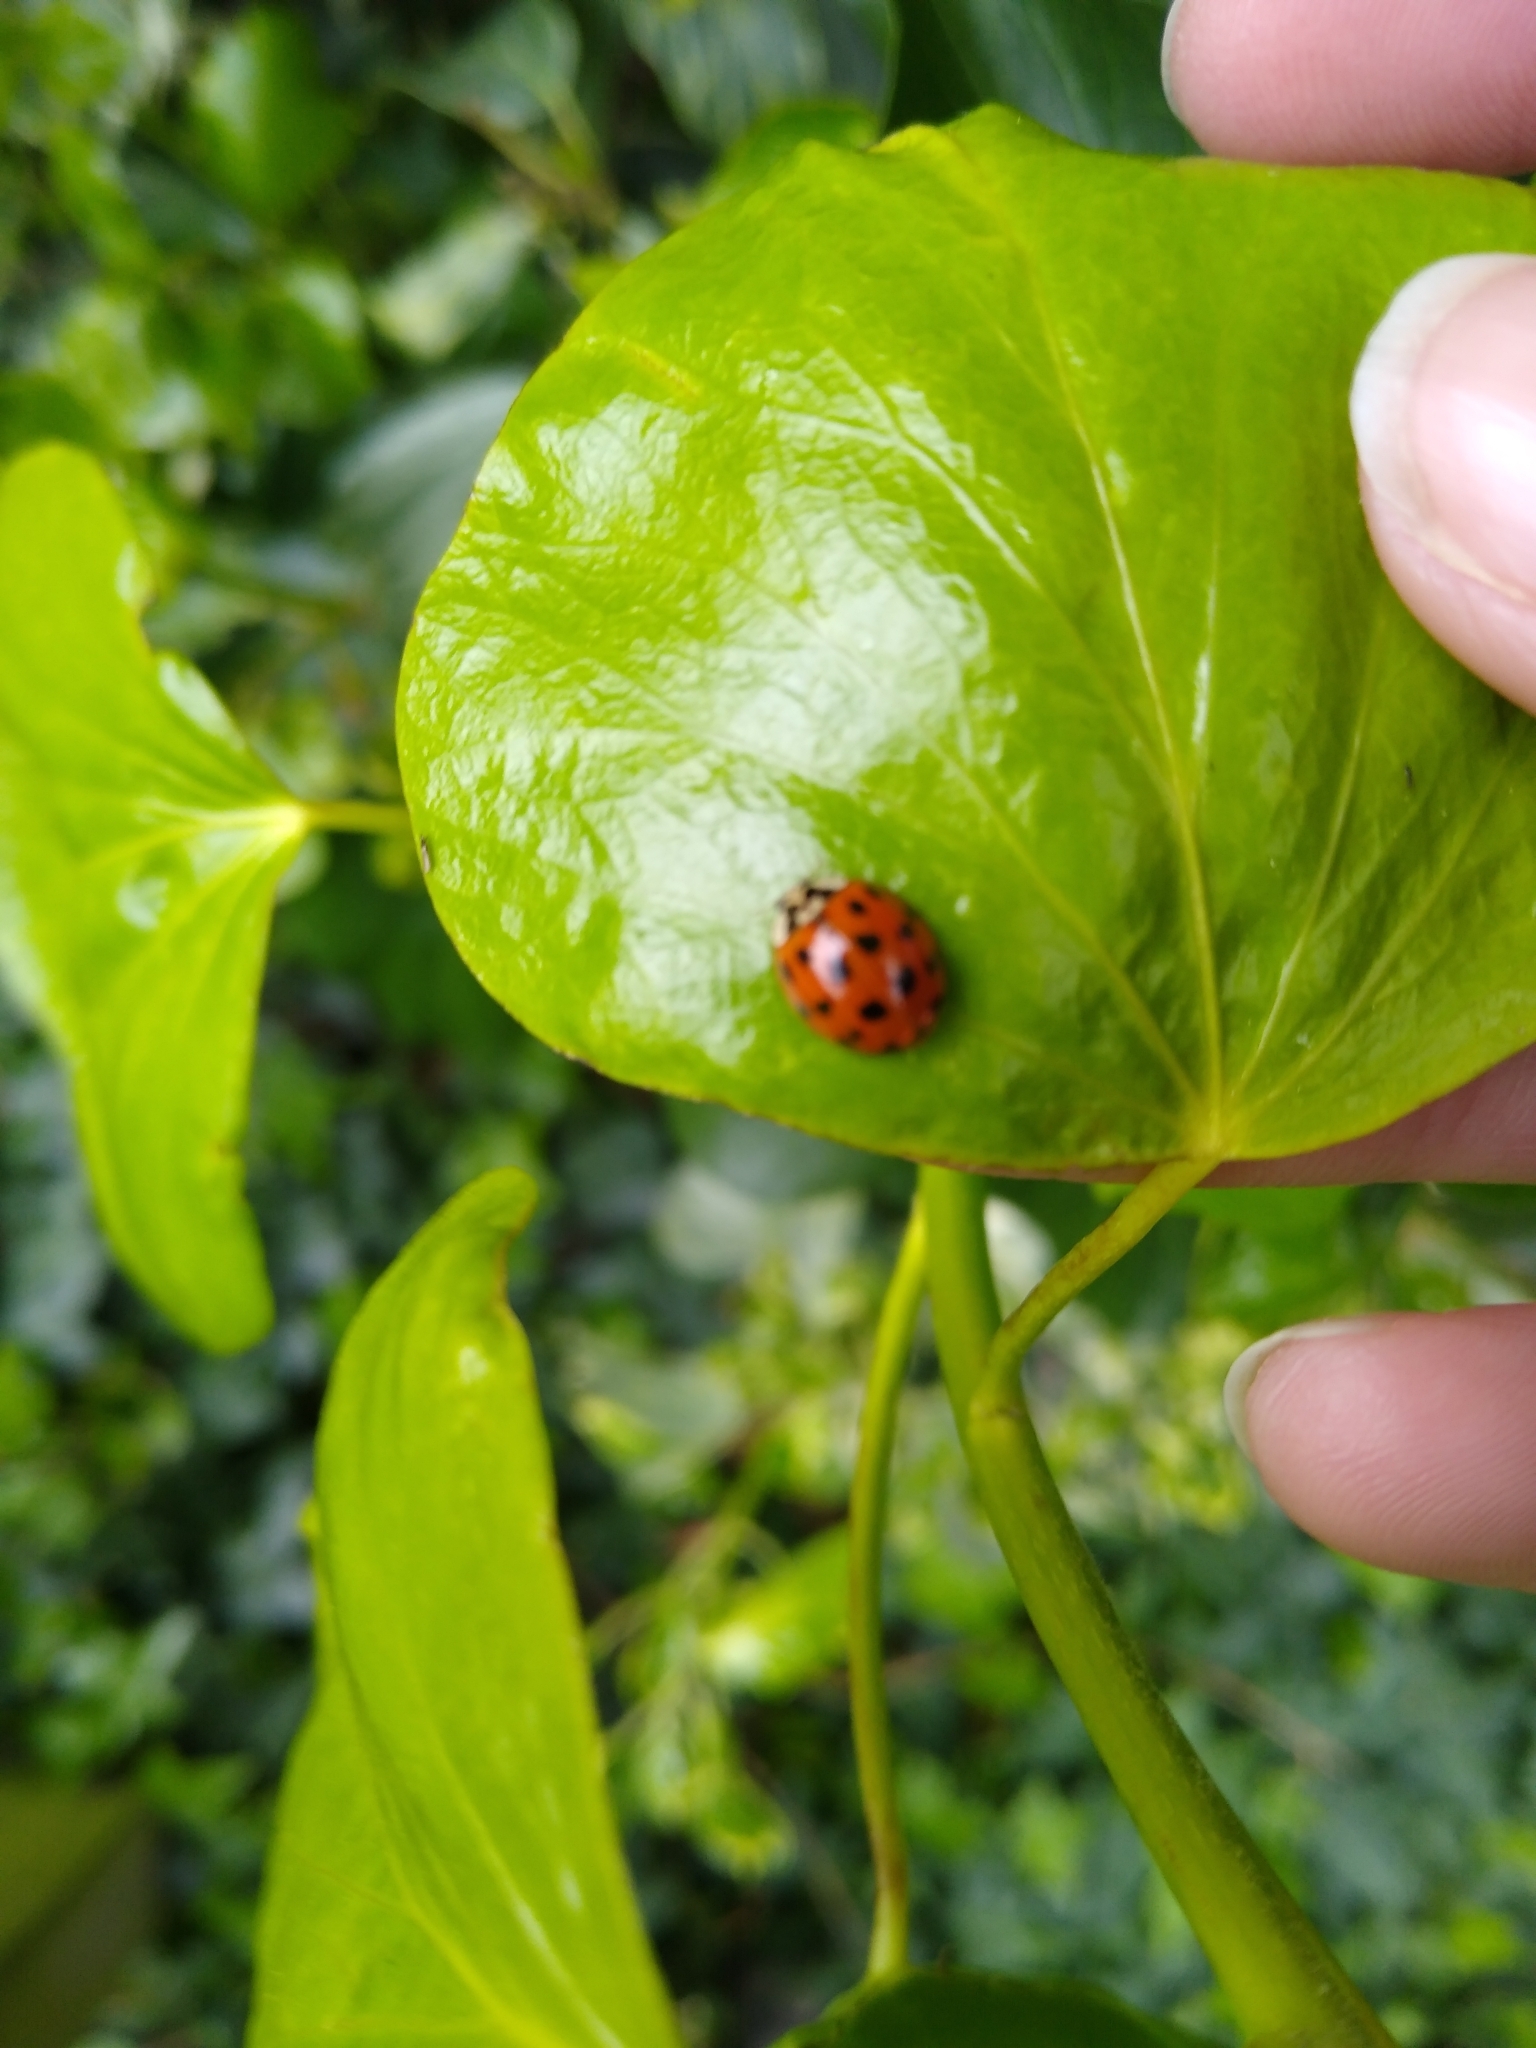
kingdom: Animalia
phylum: Arthropoda
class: Insecta
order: Coleoptera
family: Coccinellidae
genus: Harmonia
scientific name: Harmonia axyridis
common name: Harlequin ladybird
